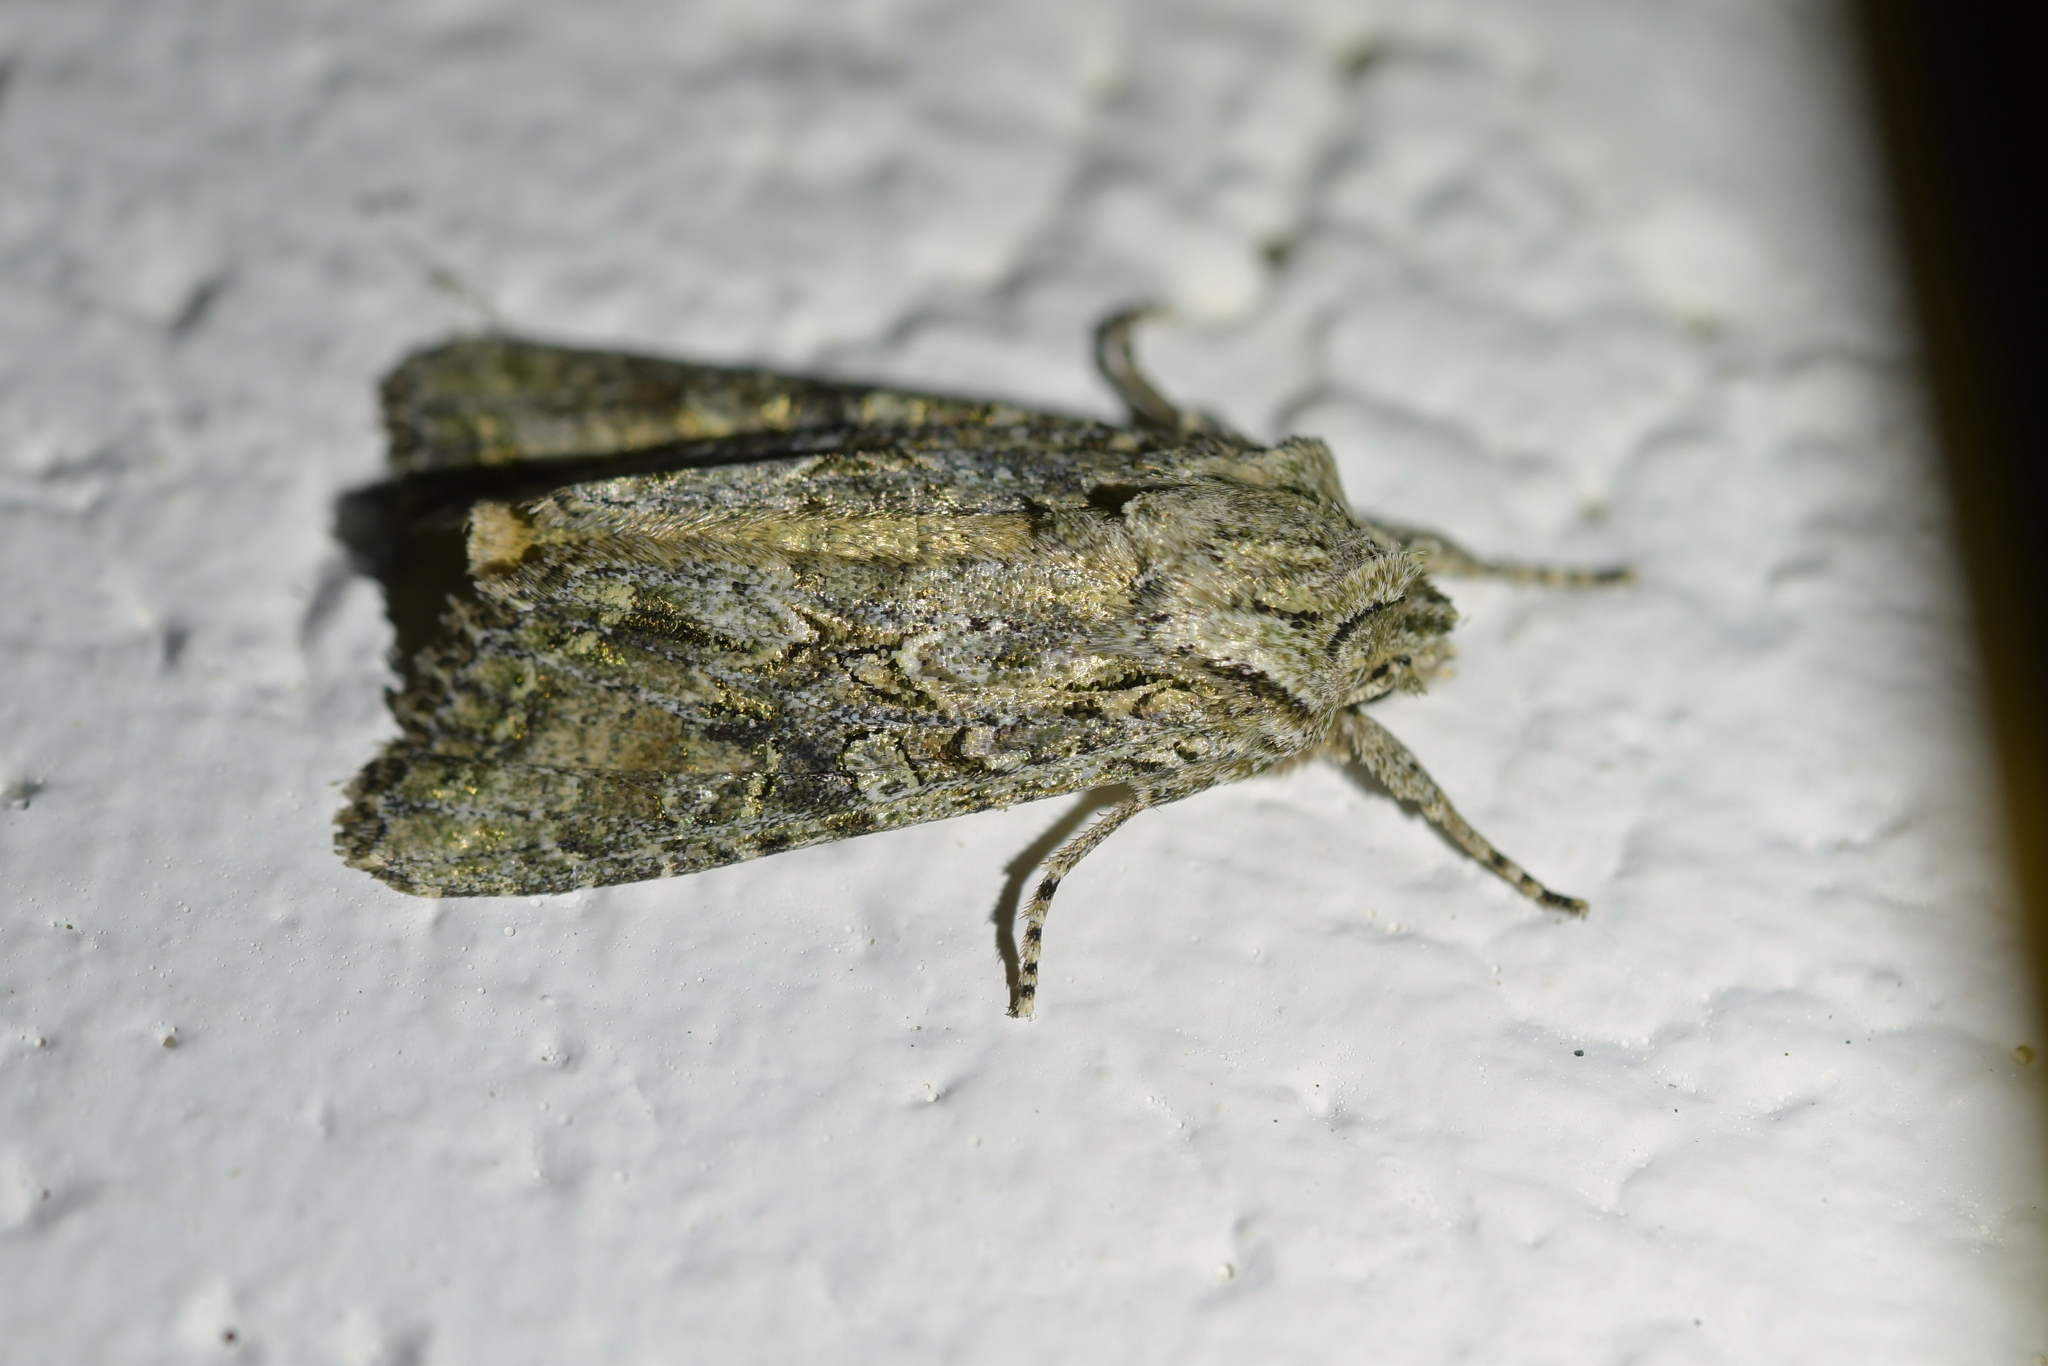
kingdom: Animalia
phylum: Arthropoda
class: Insecta
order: Lepidoptera
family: Noctuidae
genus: Ichneutica
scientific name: Ichneutica mutans
